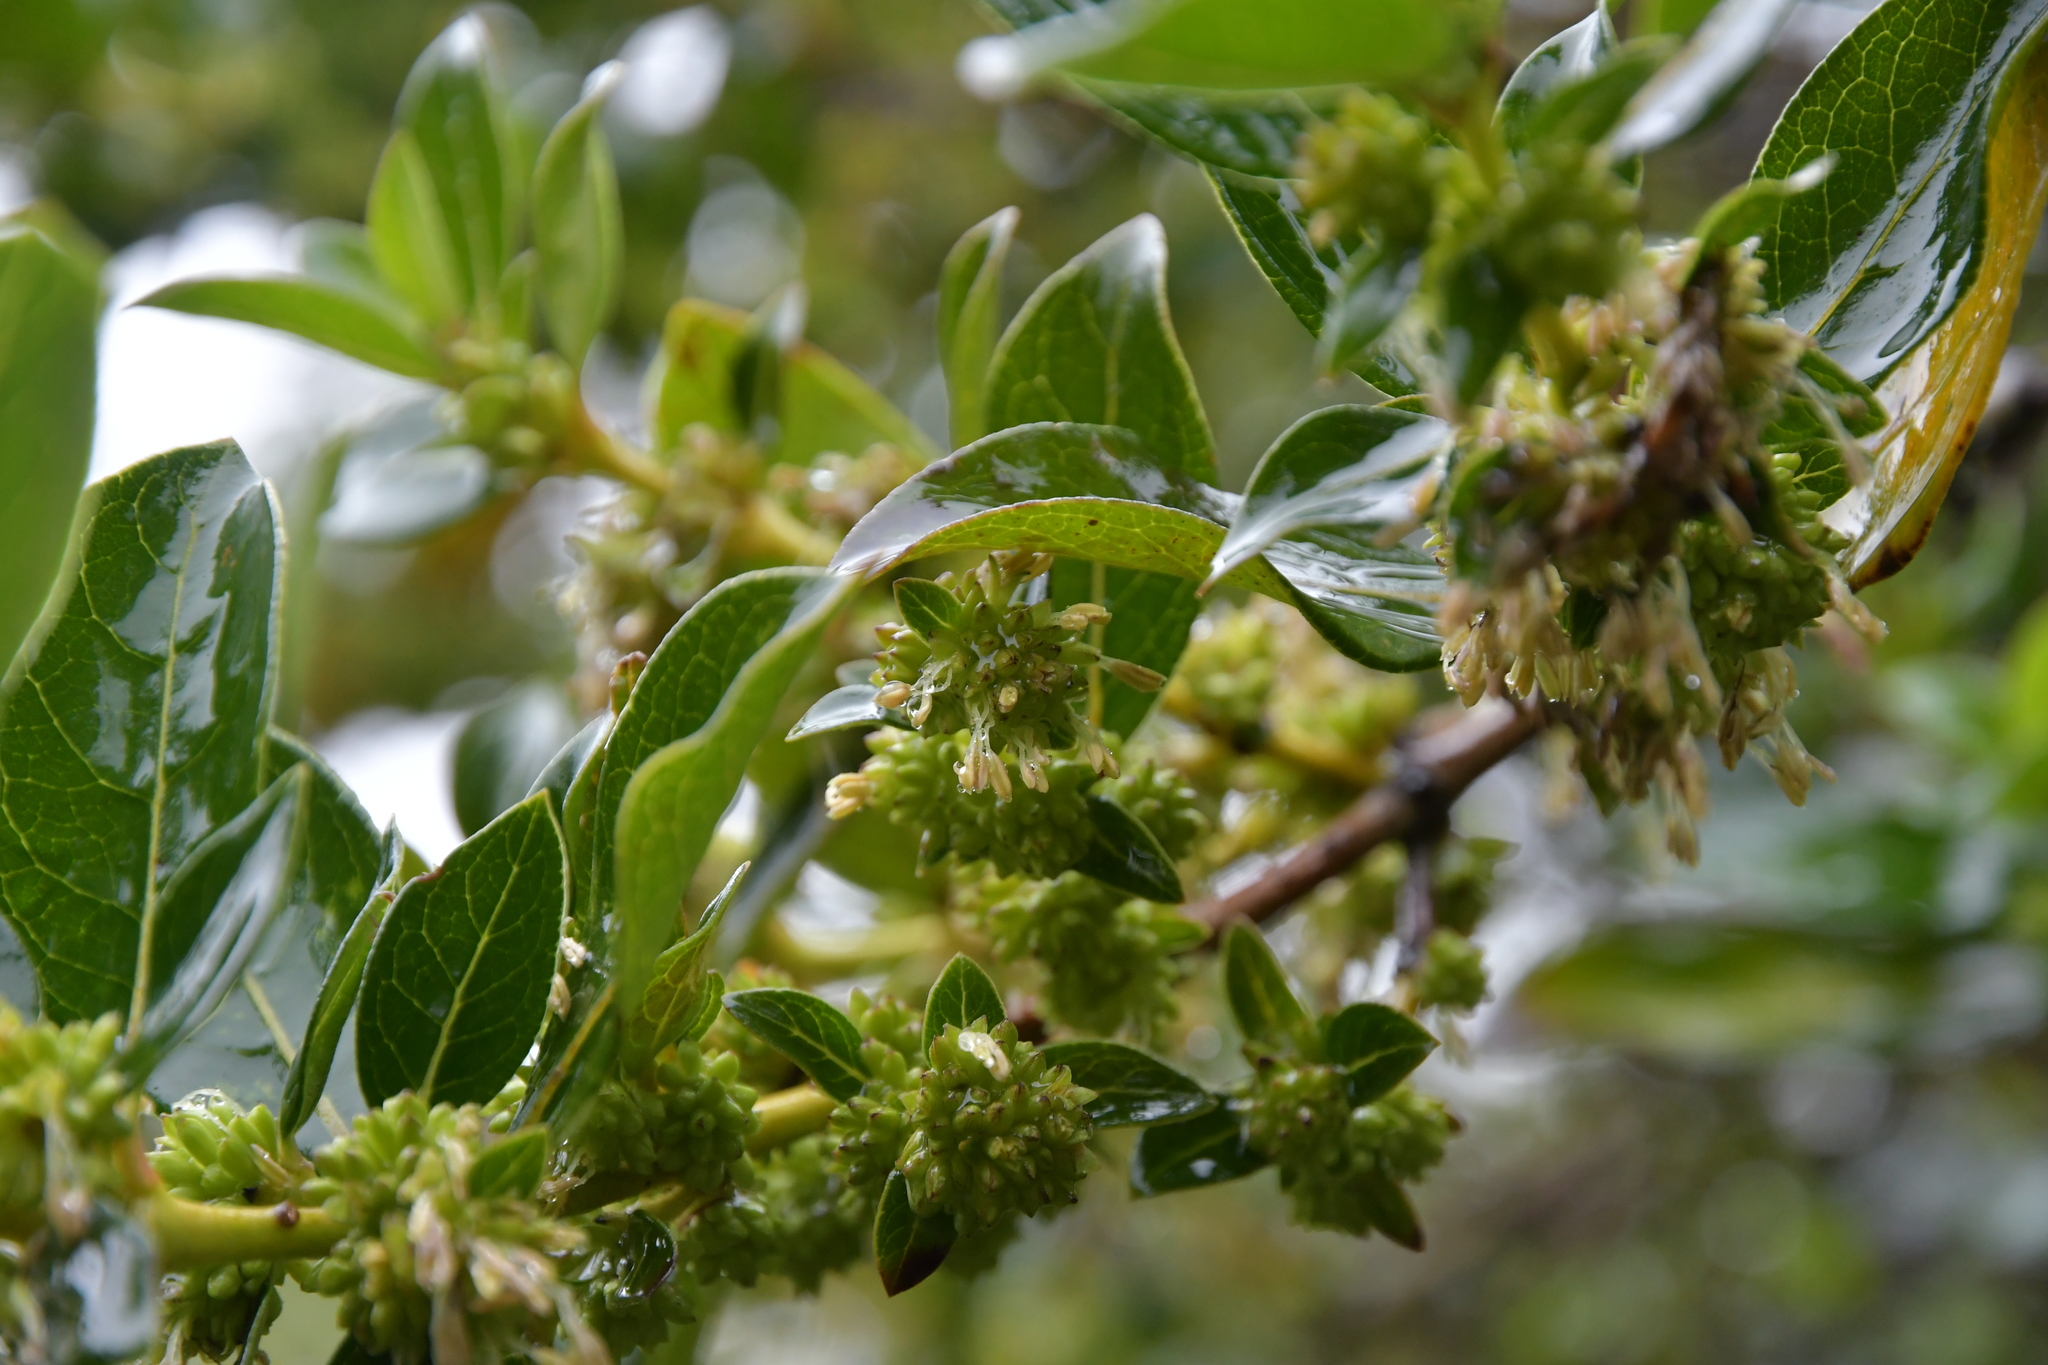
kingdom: Plantae
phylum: Tracheophyta
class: Magnoliopsida
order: Gentianales
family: Rubiaceae
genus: Coprosma
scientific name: Coprosma robusta
